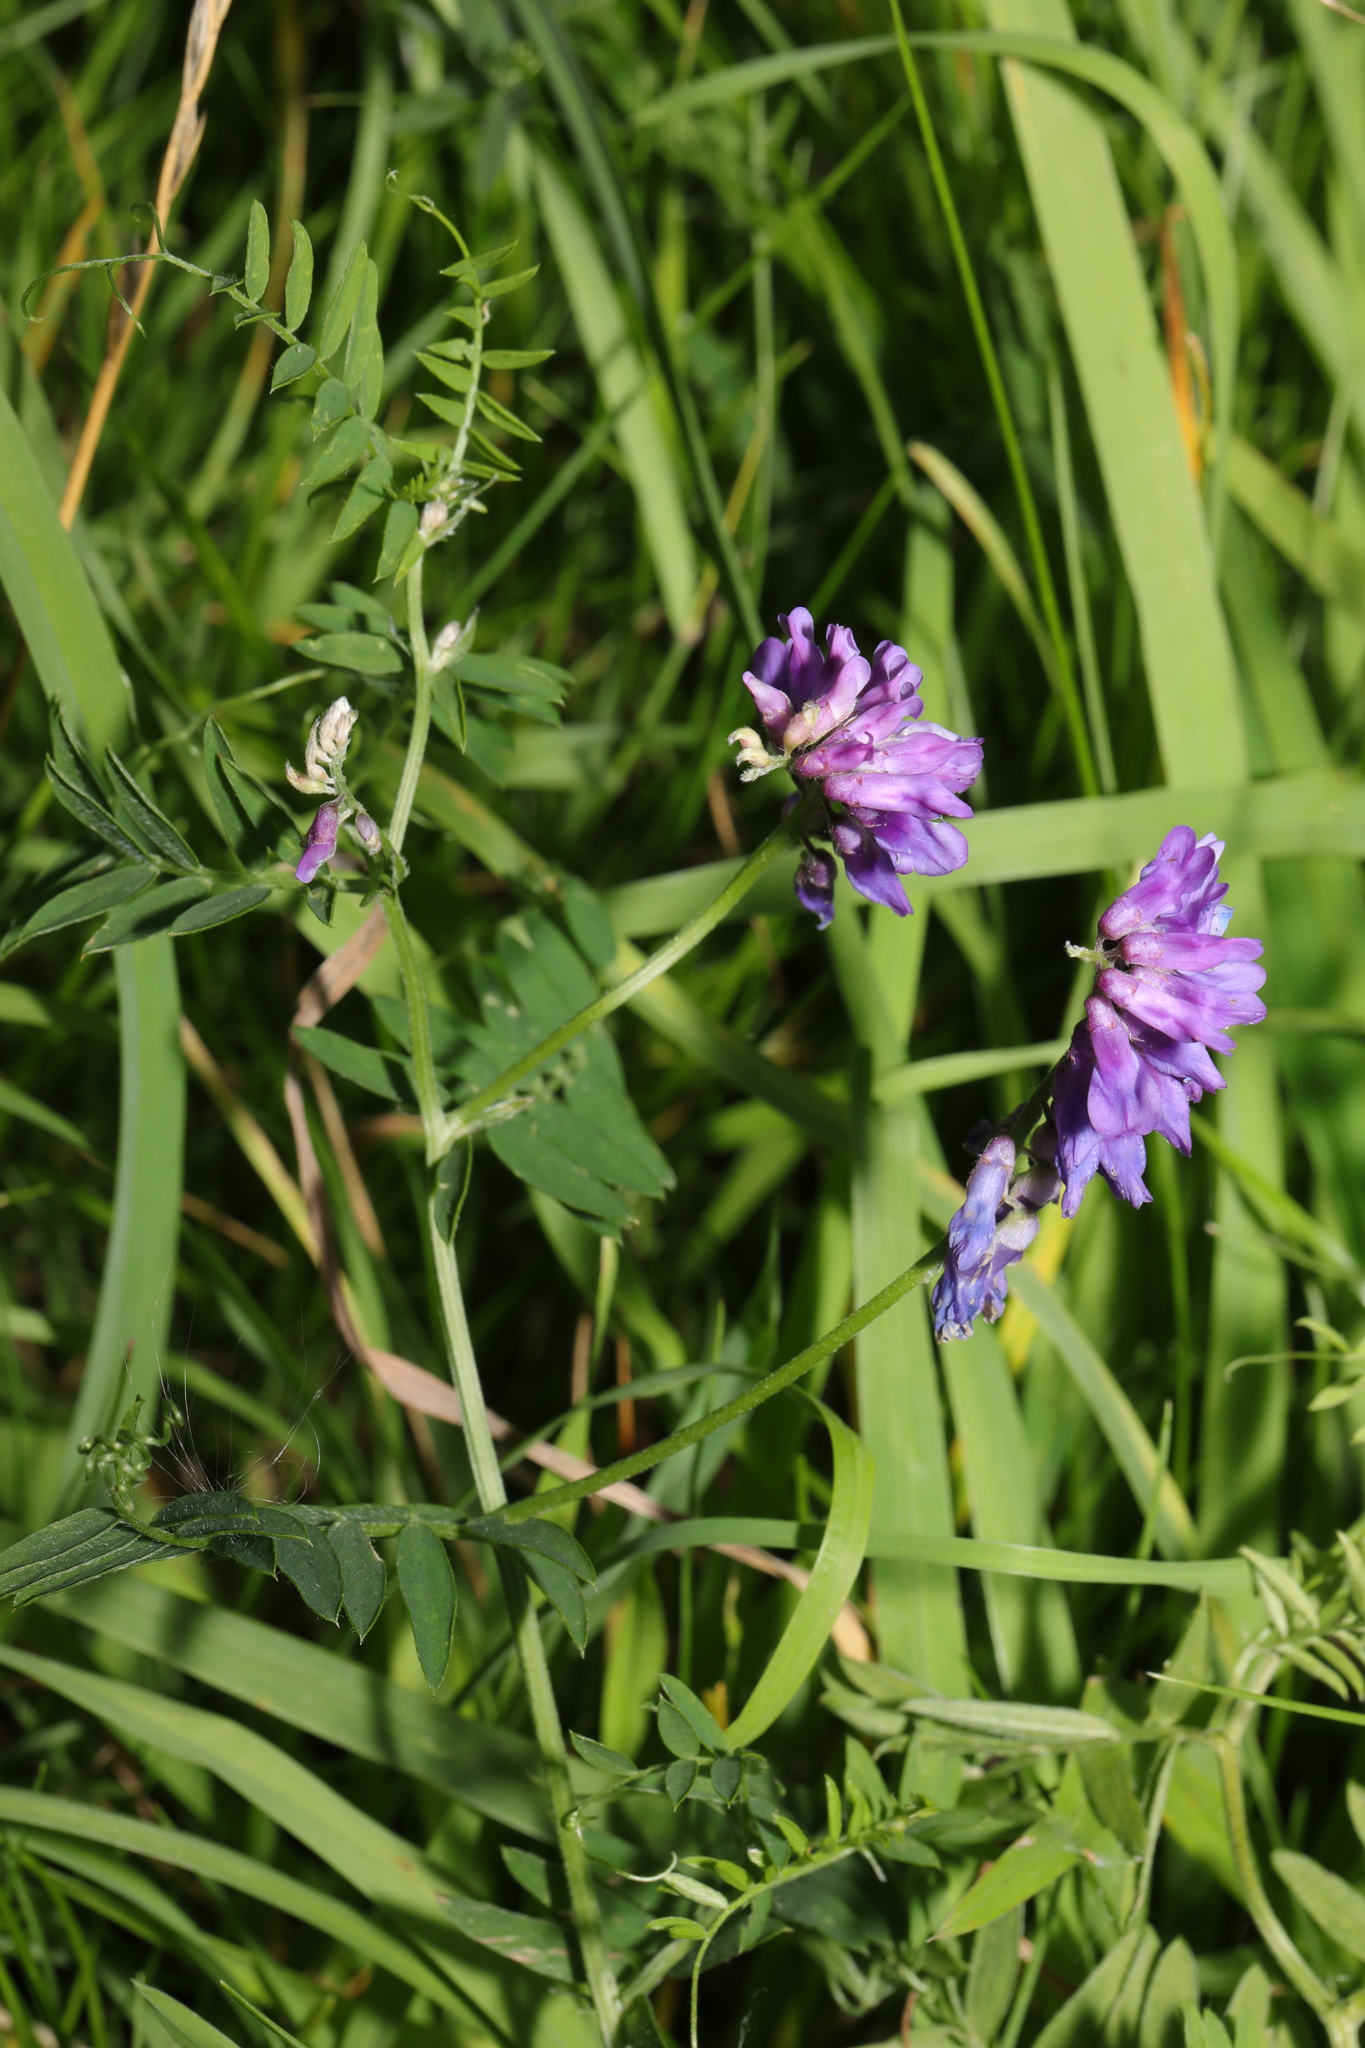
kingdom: Plantae
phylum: Tracheophyta
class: Magnoliopsida
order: Fabales
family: Fabaceae
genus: Vicia
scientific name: Vicia cracca
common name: Bird vetch
